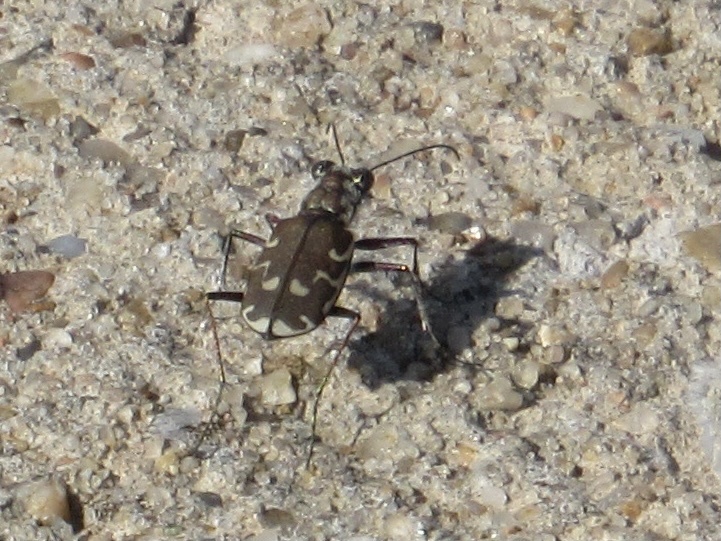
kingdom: Animalia
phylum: Arthropoda
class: Insecta
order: Coleoptera
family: Carabidae
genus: Cicindela
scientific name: Cicindela repanda
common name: Bronzed tiger beetle
